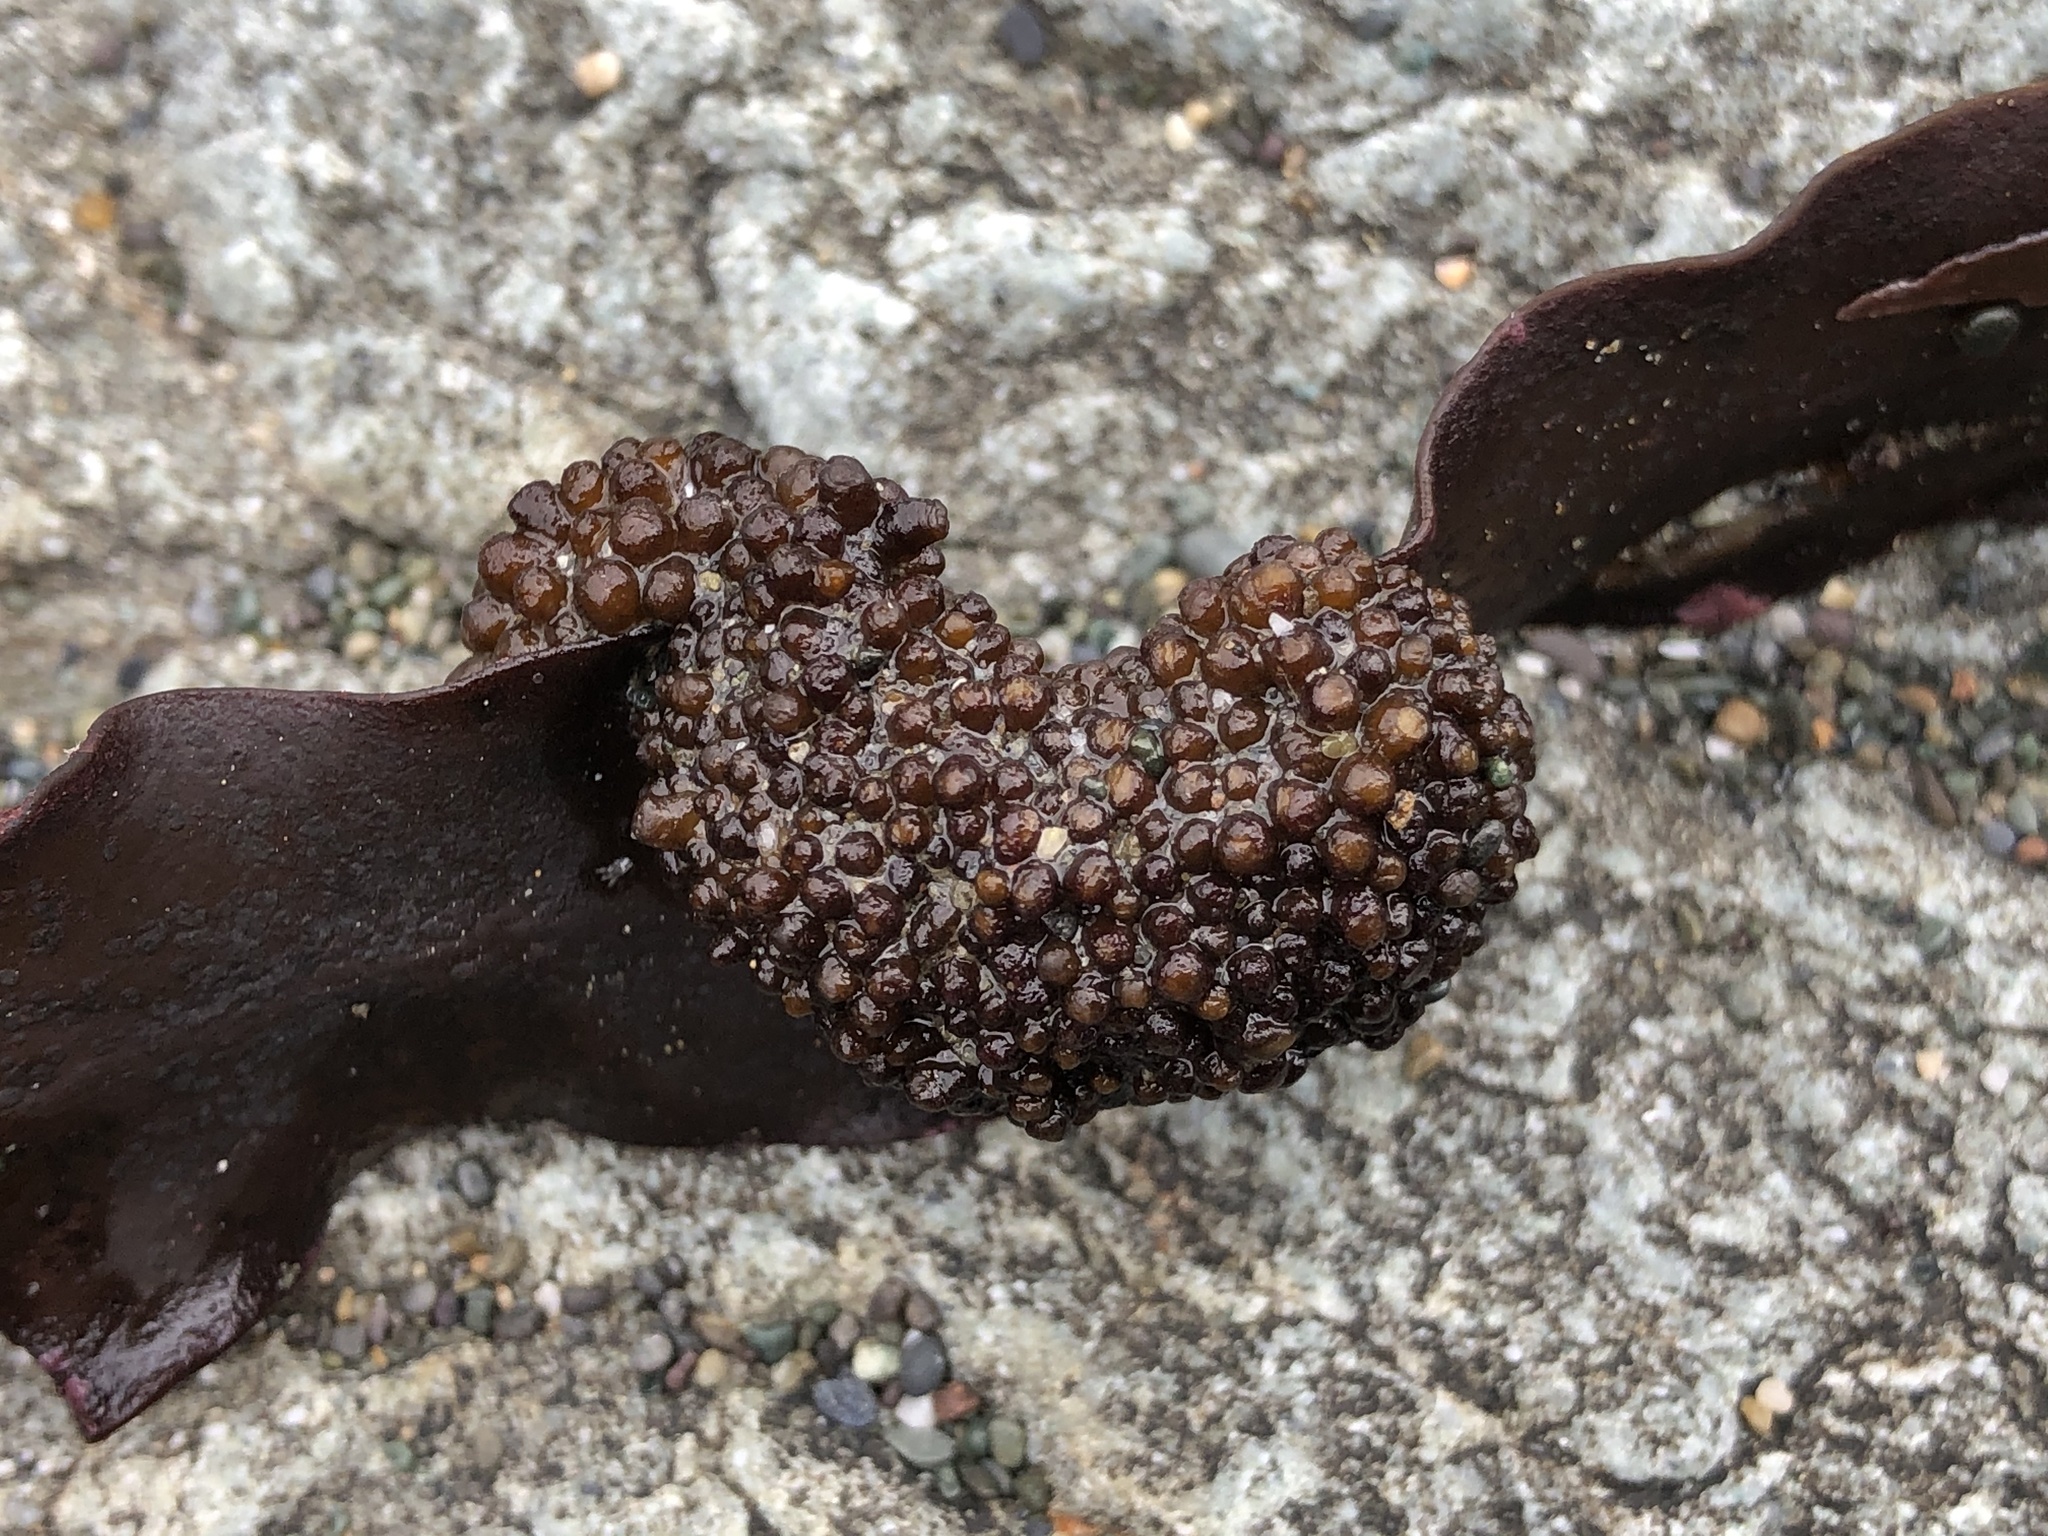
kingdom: Chromista
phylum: Ochrophyta
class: Phaeophyceae
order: Fucales
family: Sargassaceae
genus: Stephanocystis
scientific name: Stephanocystis
